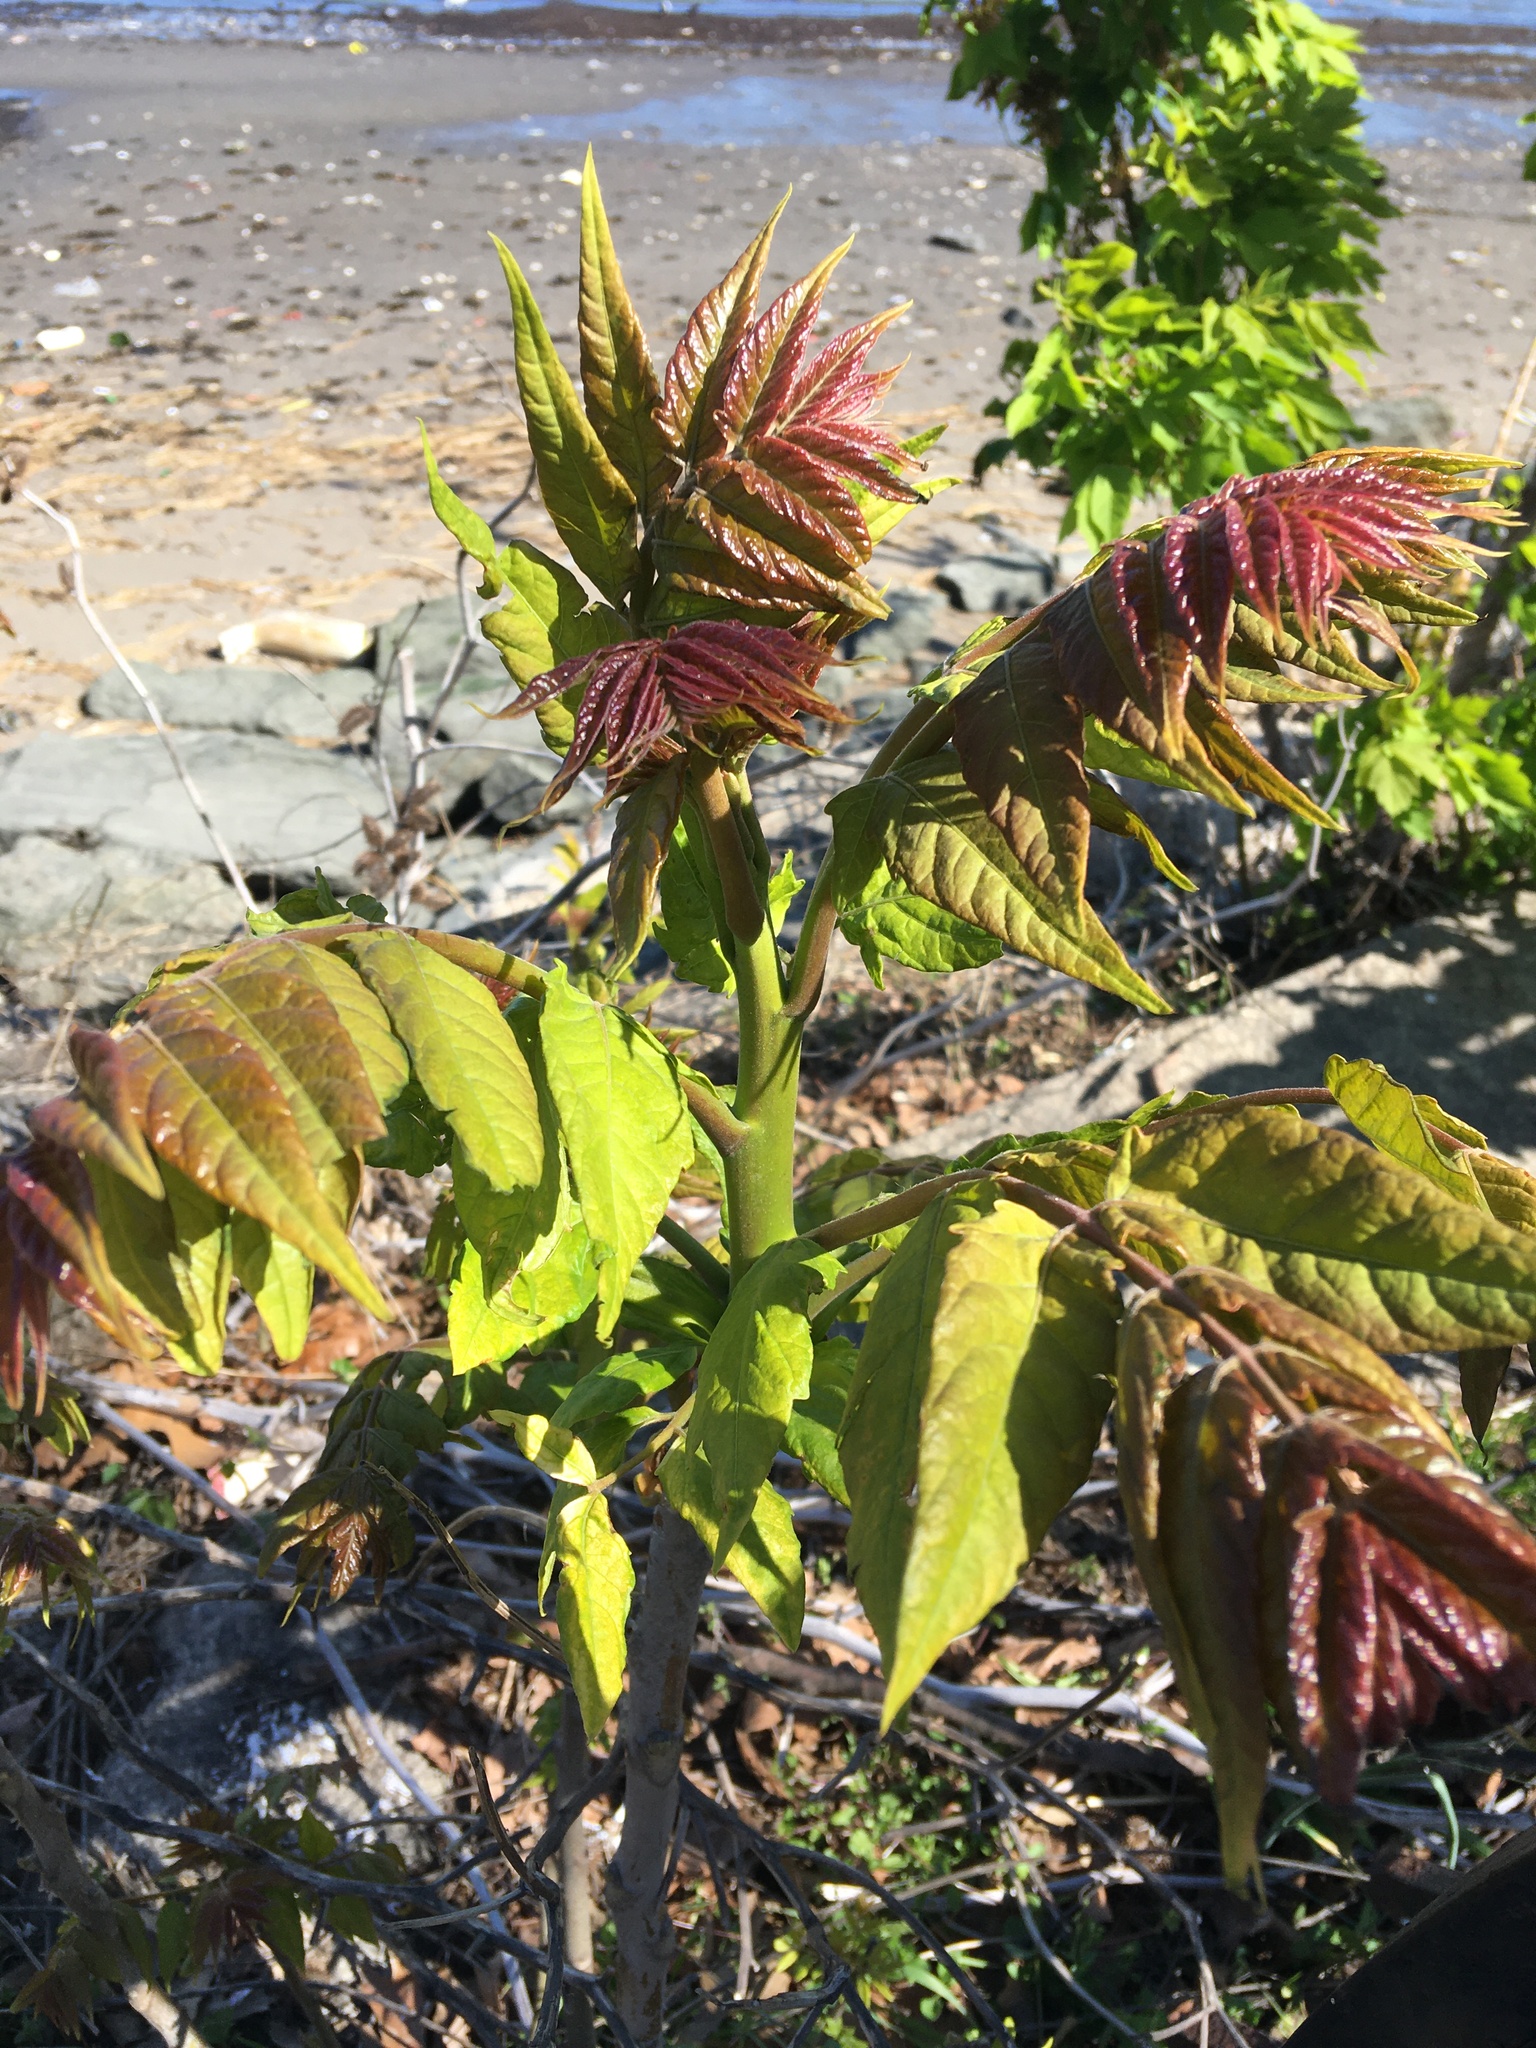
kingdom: Plantae
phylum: Tracheophyta
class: Magnoliopsida
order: Sapindales
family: Simaroubaceae
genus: Ailanthus
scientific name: Ailanthus altissima
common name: Tree-of-heaven
